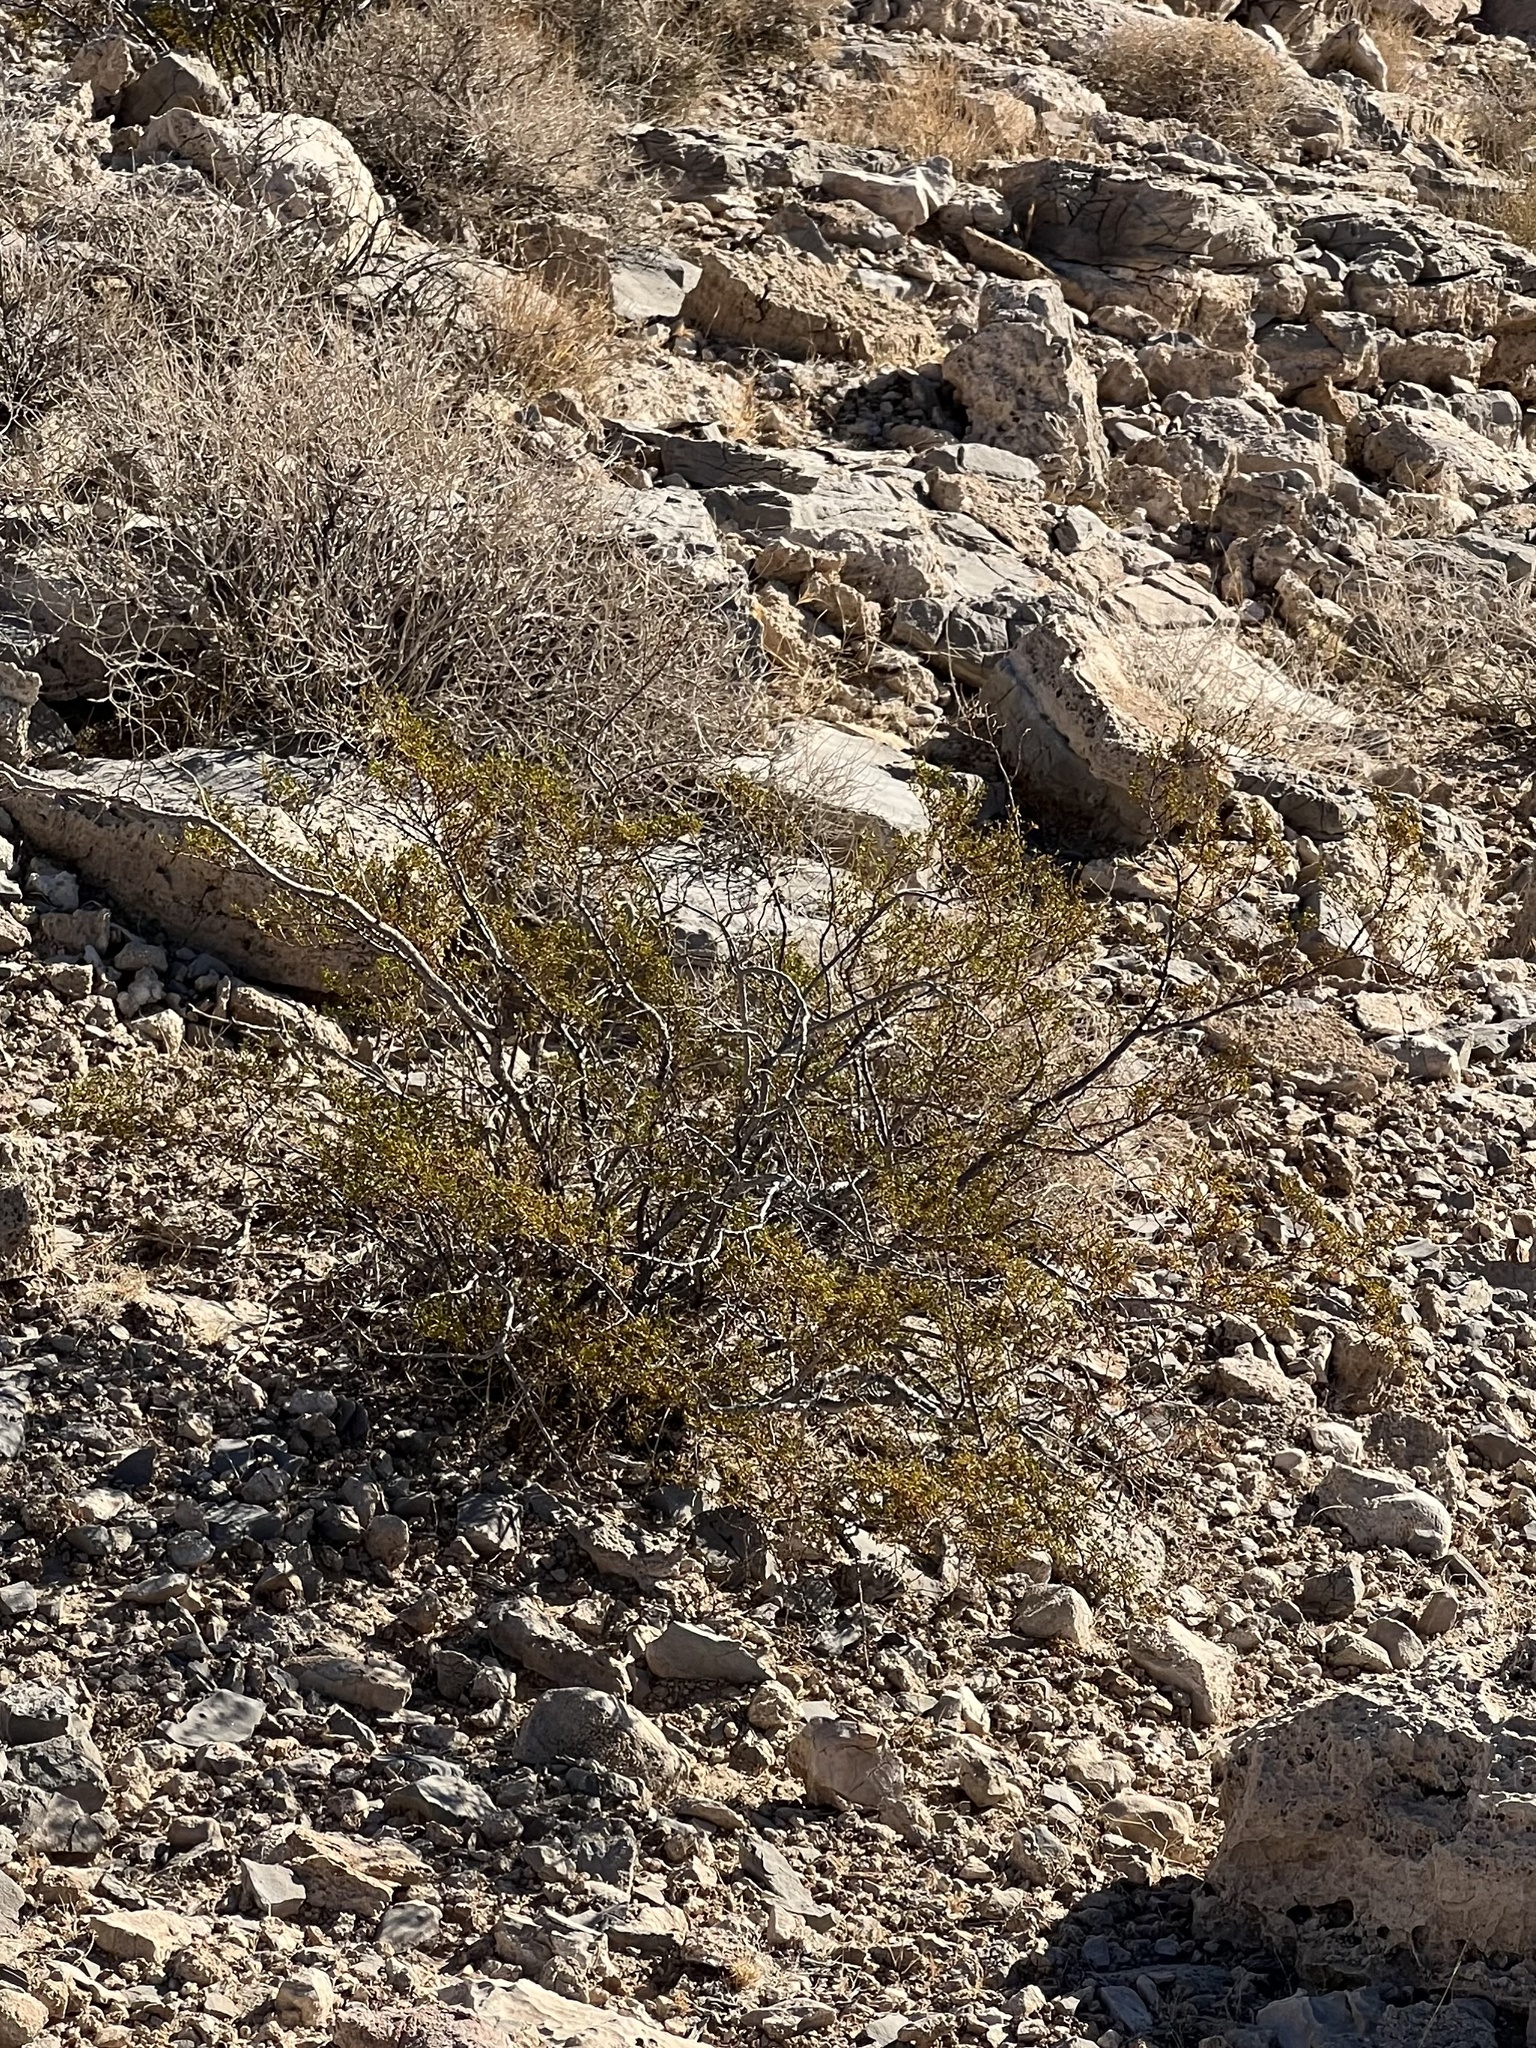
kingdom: Plantae
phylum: Tracheophyta
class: Magnoliopsida
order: Zygophyllales
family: Zygophyllaceae
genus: Larrea
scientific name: Larrea tridentata
